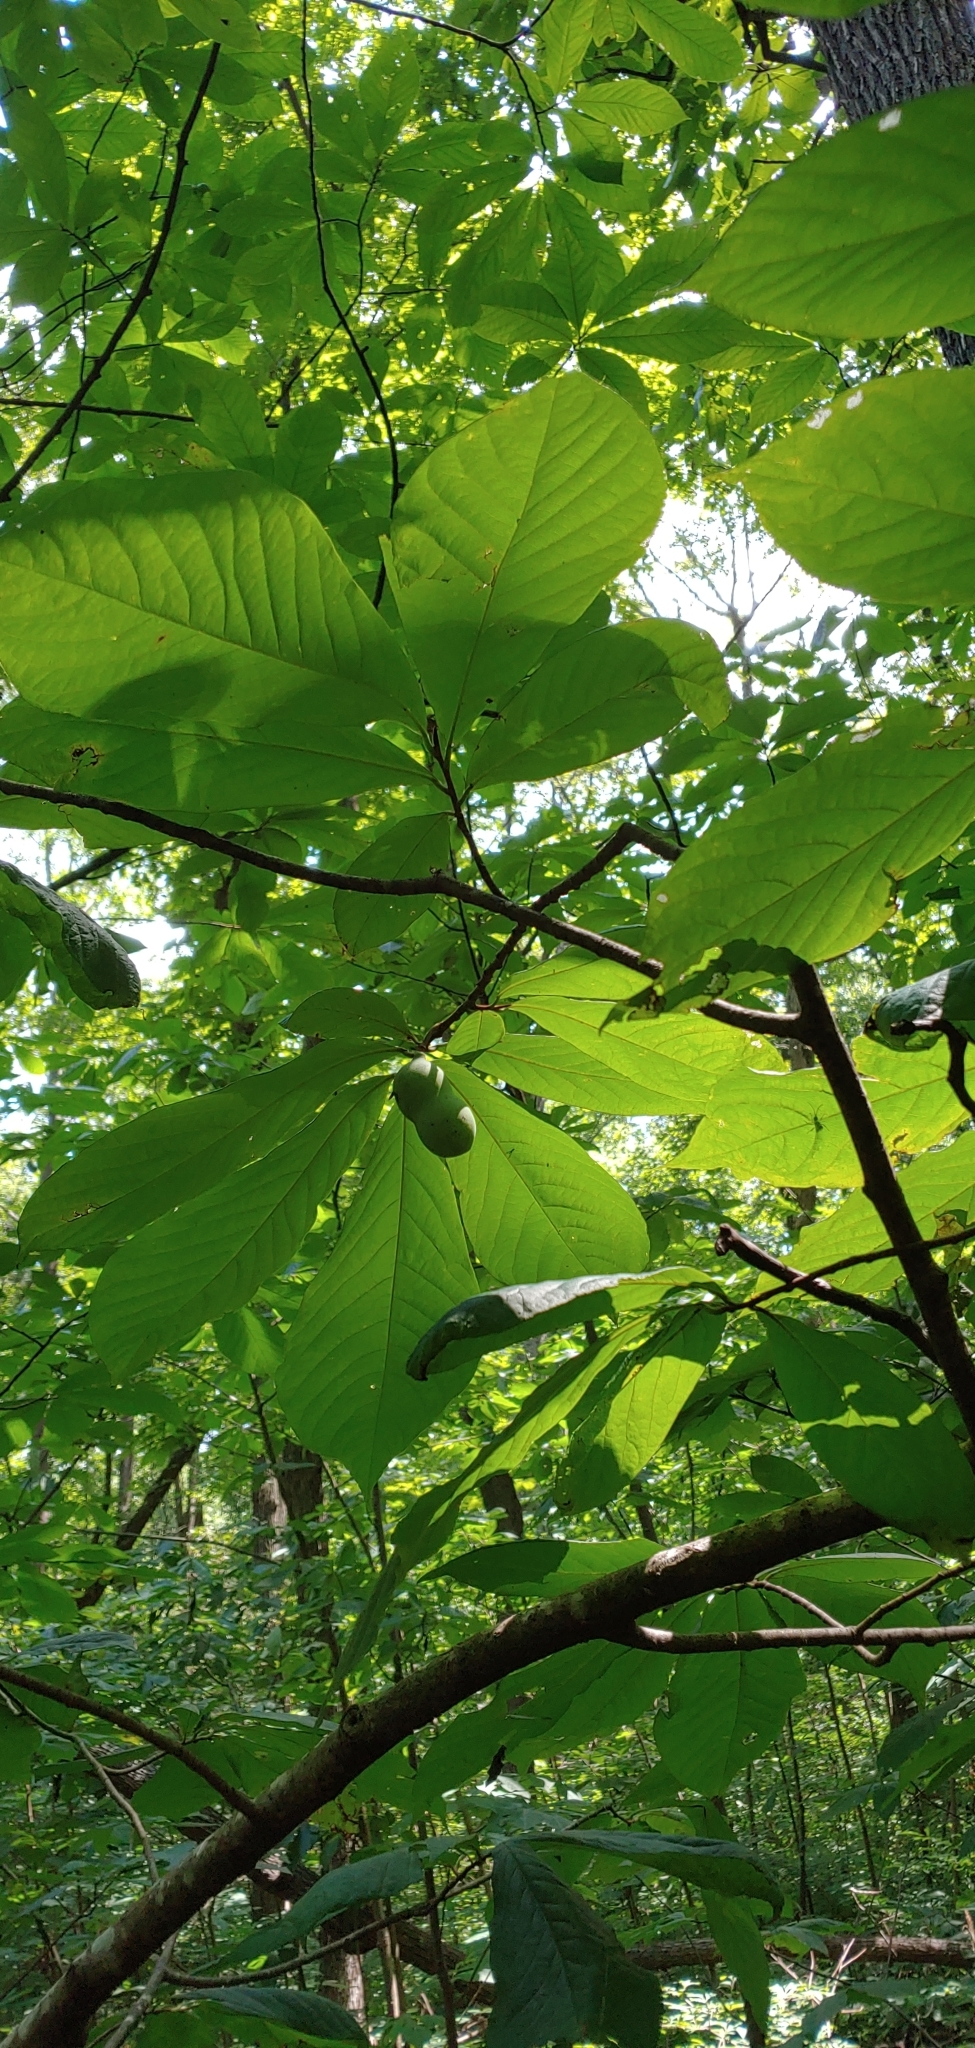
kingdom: Plantae
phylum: Tracheophyta
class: Magnoliopsida
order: Magnoliales
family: Annonaceae
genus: Asimina
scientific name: Asimina triloba
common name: Dog-banana
